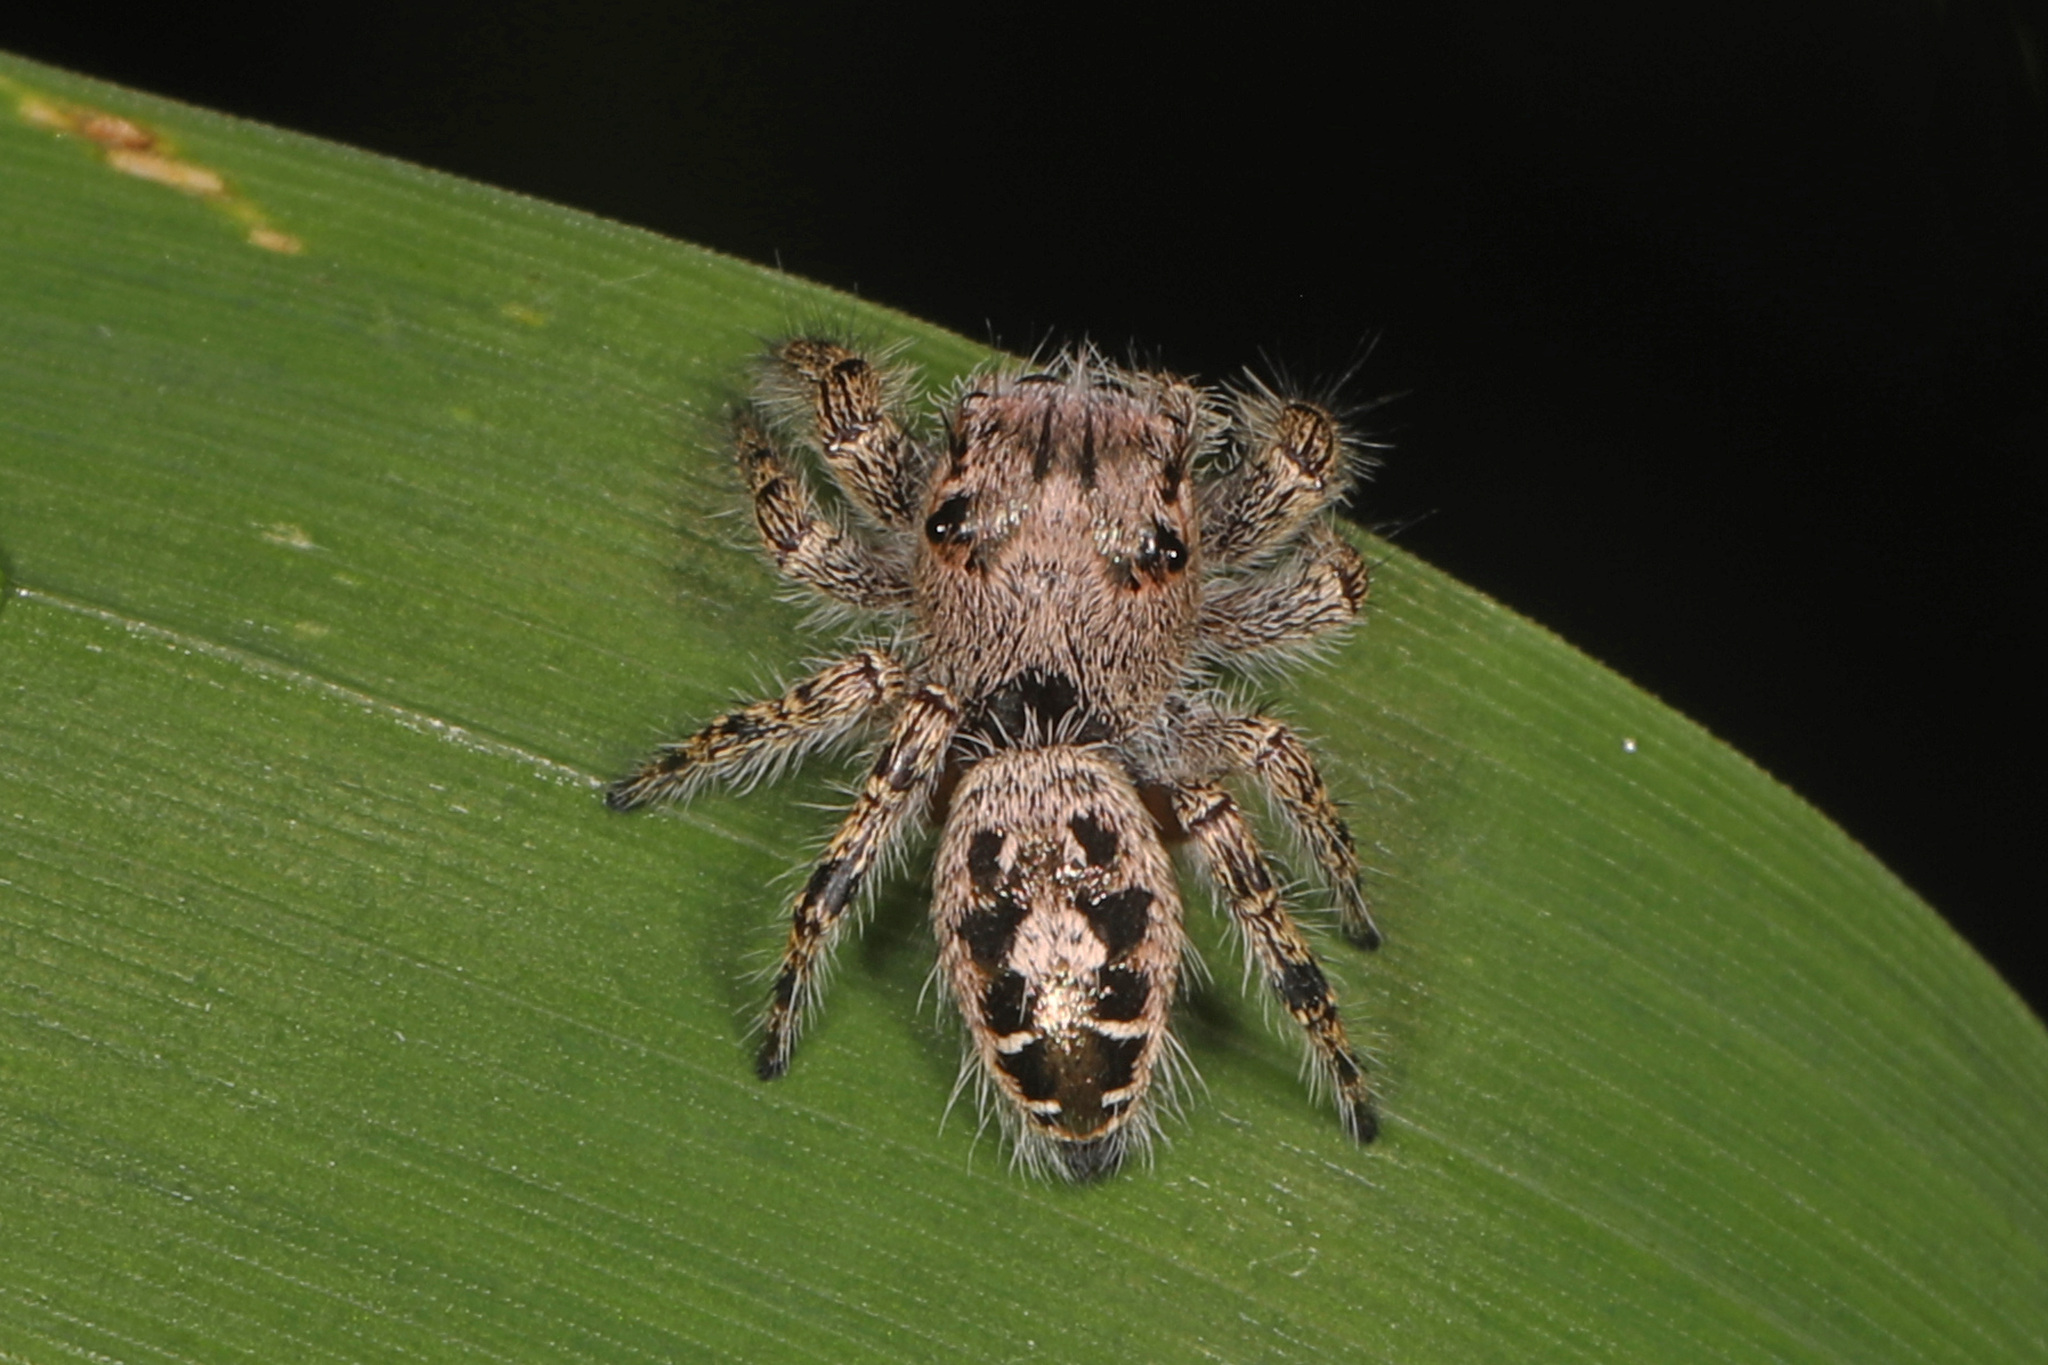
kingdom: Animalia
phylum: Arthropoda
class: Arachnida
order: Araneae
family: Salticidae
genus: Phidippus
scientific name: Phidippus putnami
